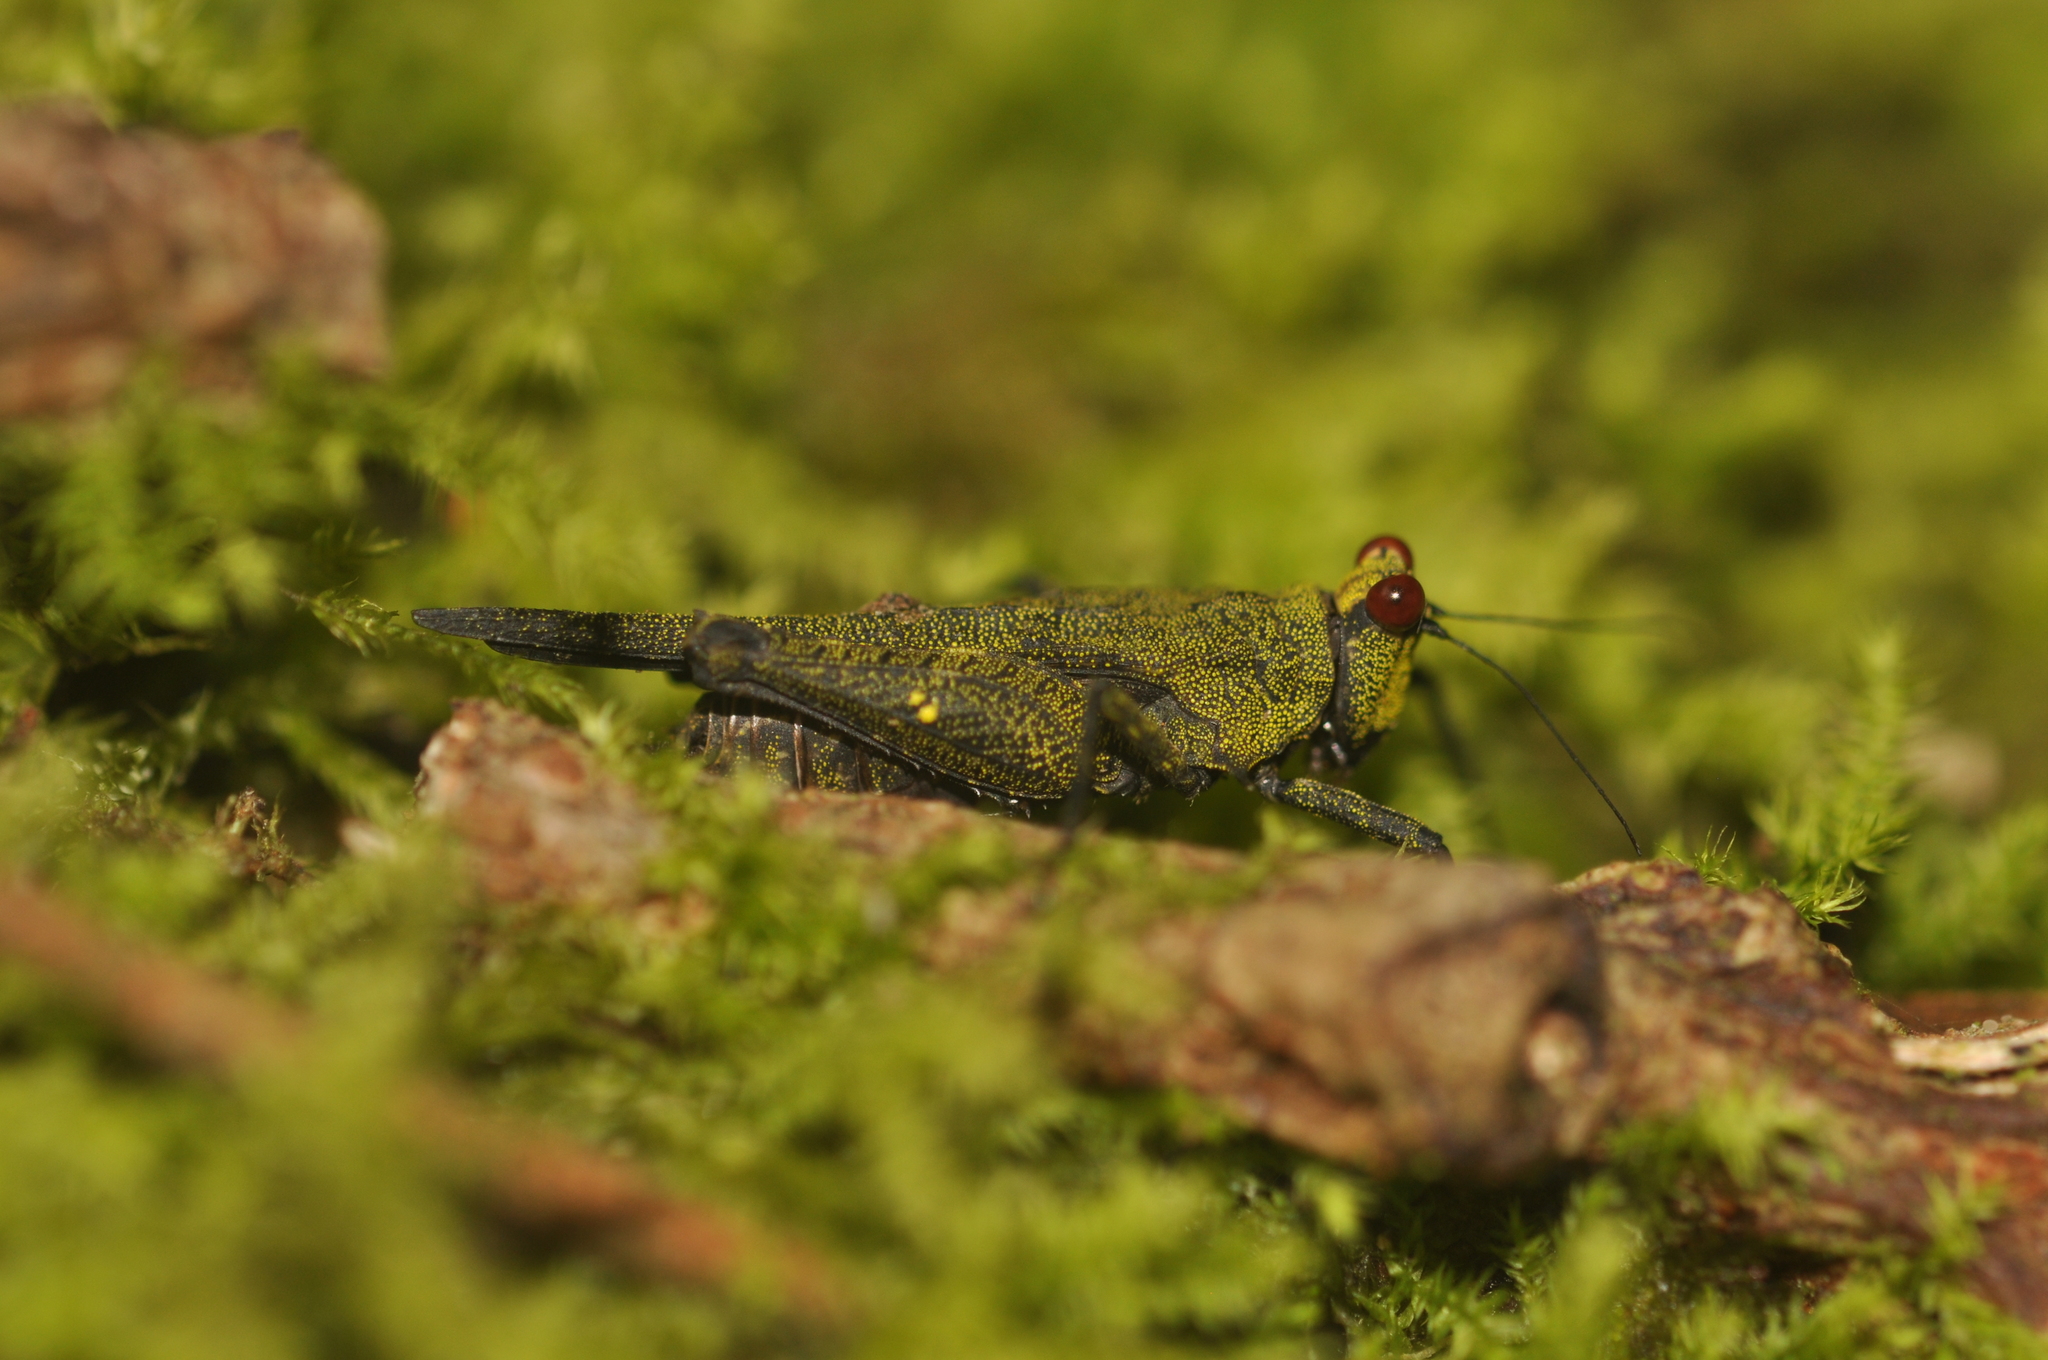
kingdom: Animalia
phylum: Arthropoda
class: Insecta
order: Orthoptera
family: Tetrigidae
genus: Oxytettix
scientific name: Oxytettix arius
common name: Yellow-dot black pygmy grasshopper
